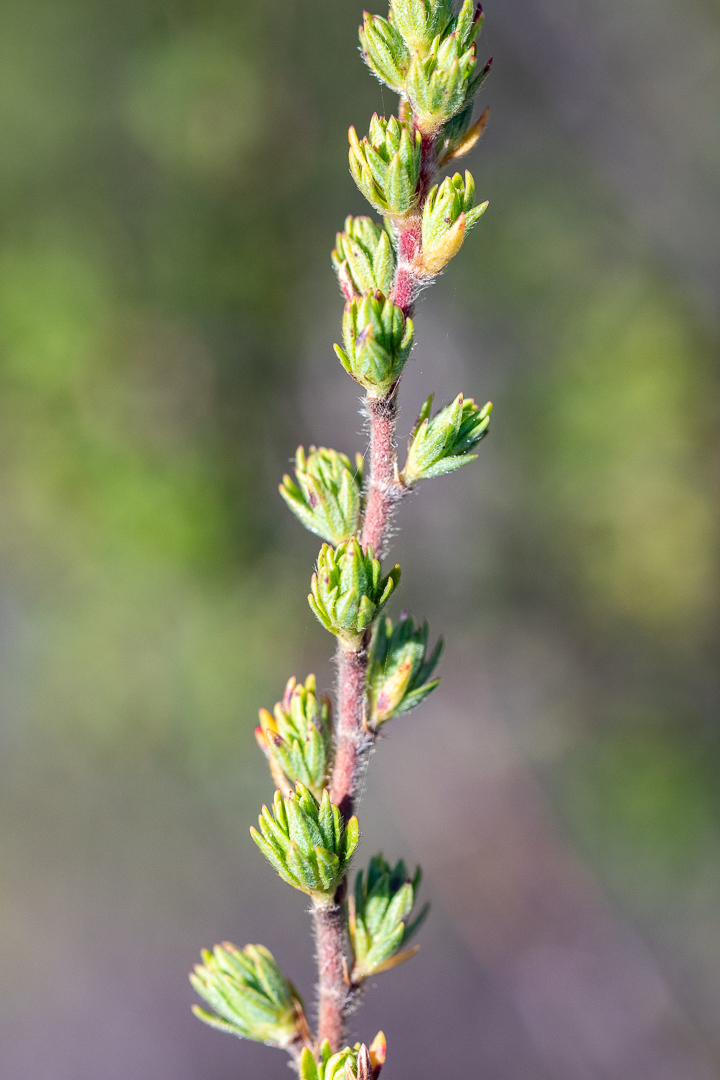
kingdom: Plantae
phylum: Tracheophyta
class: Magnoliopsida
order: Rosales
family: Rosaceae
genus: Cliffortia
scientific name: Cliffortia polygonifolia
